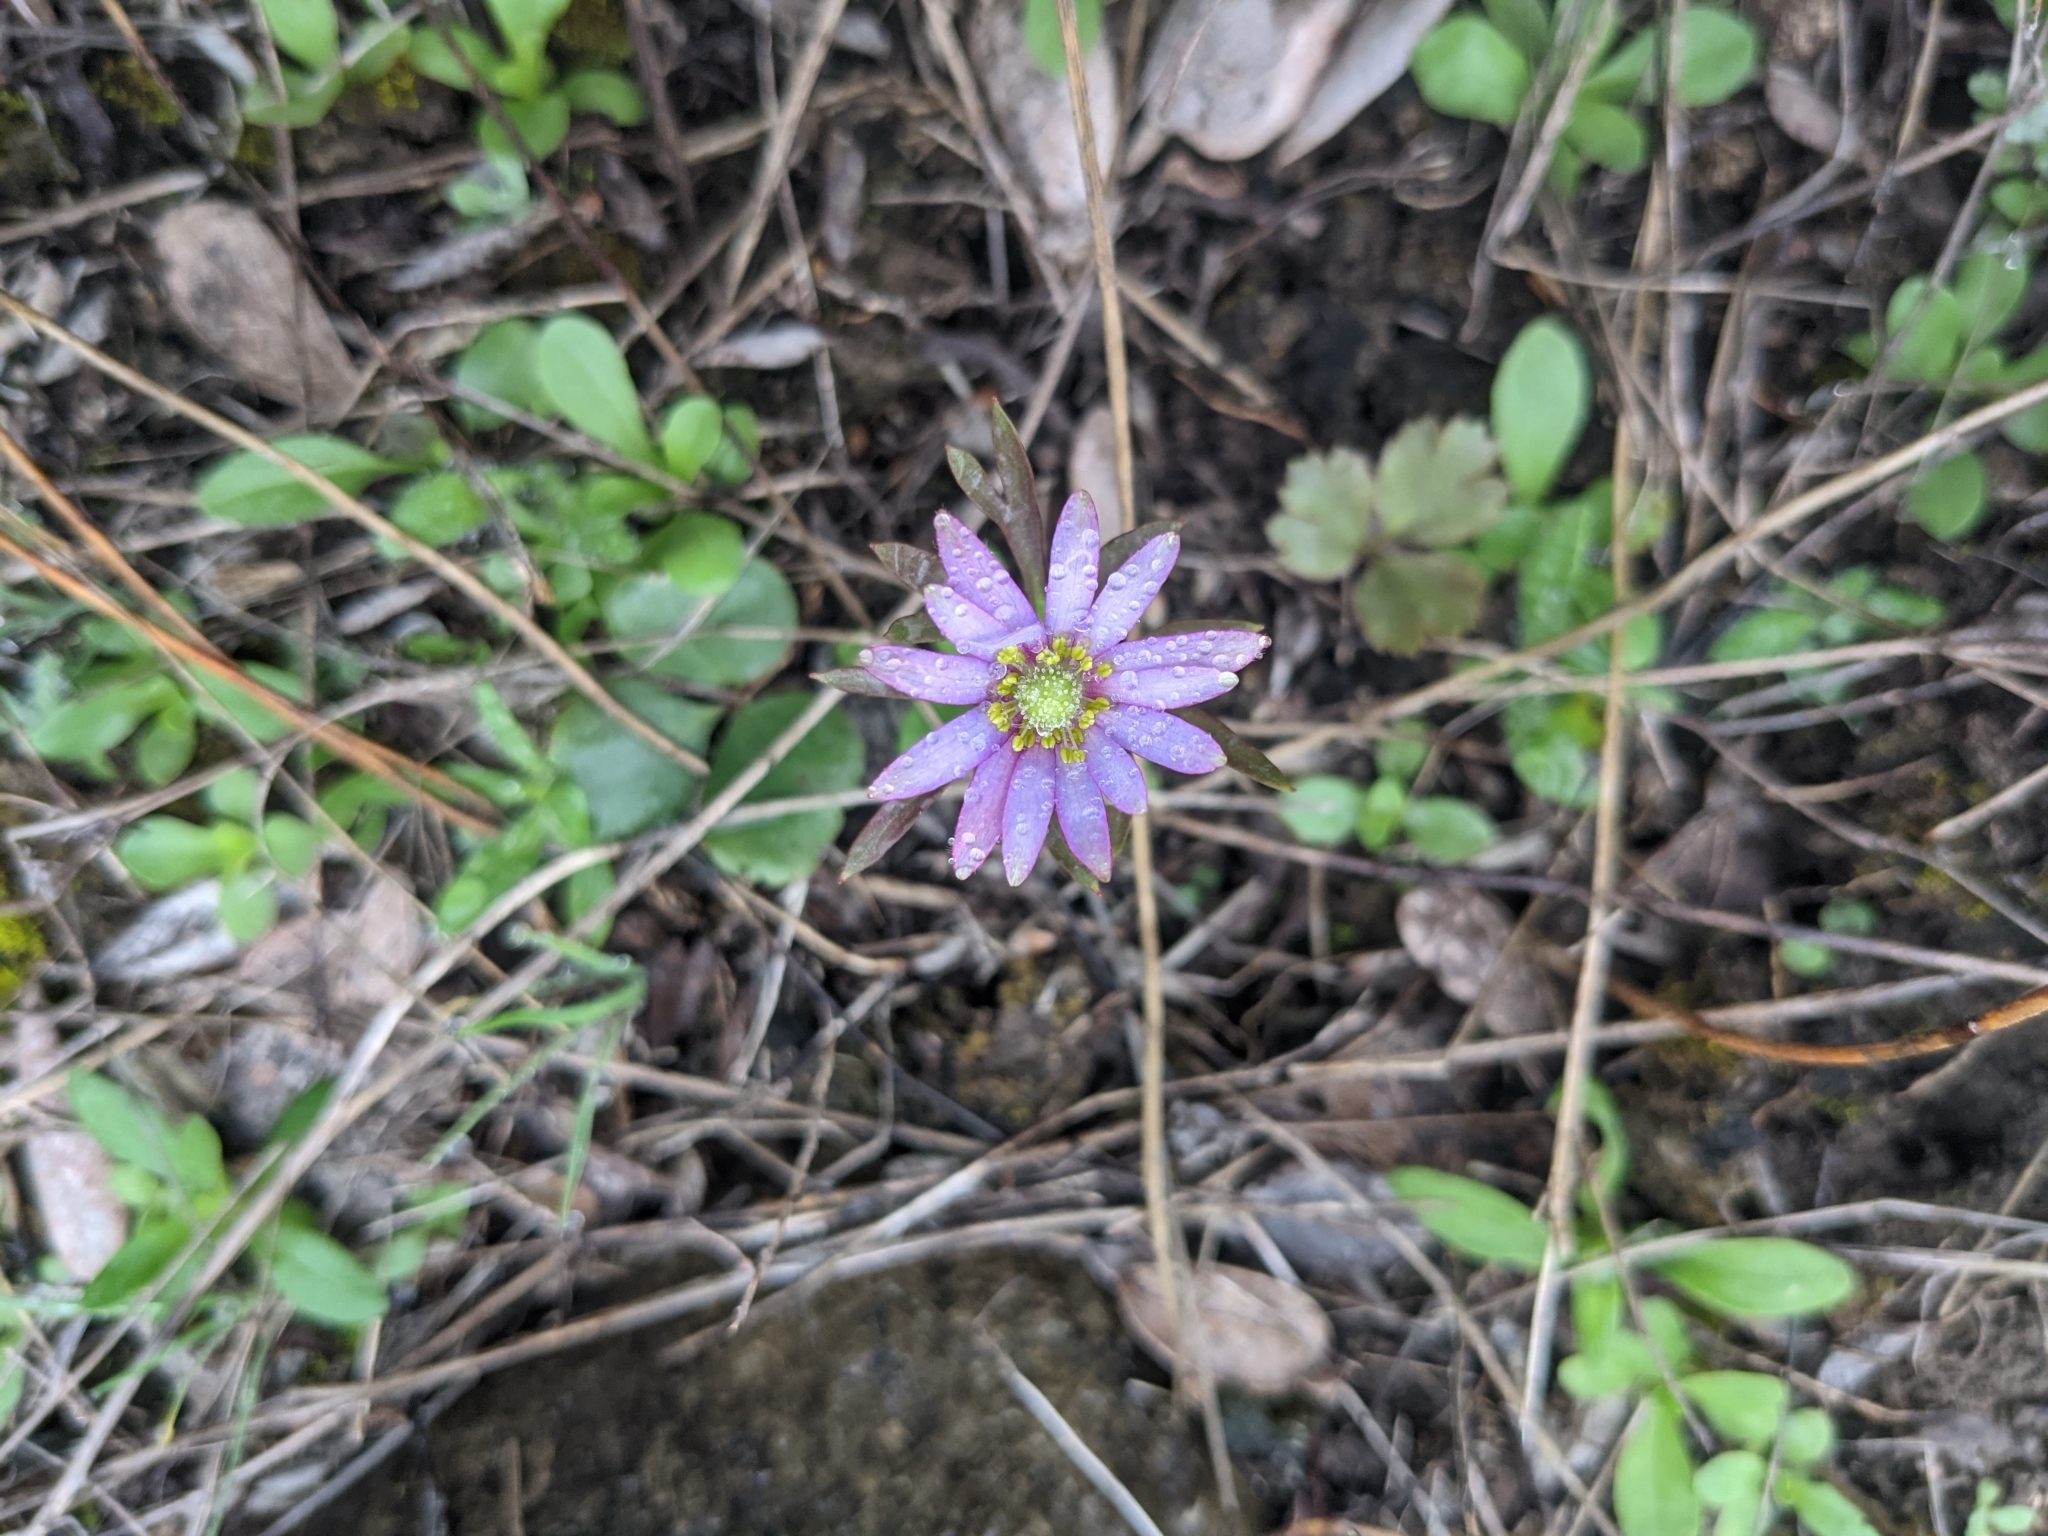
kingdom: Plantae
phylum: Tracheophyta
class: Magnoliopsida
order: Ranunculales
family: Ranunculaceae
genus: Anemone
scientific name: Anemone berlandieri
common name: Ten-petal anemone
